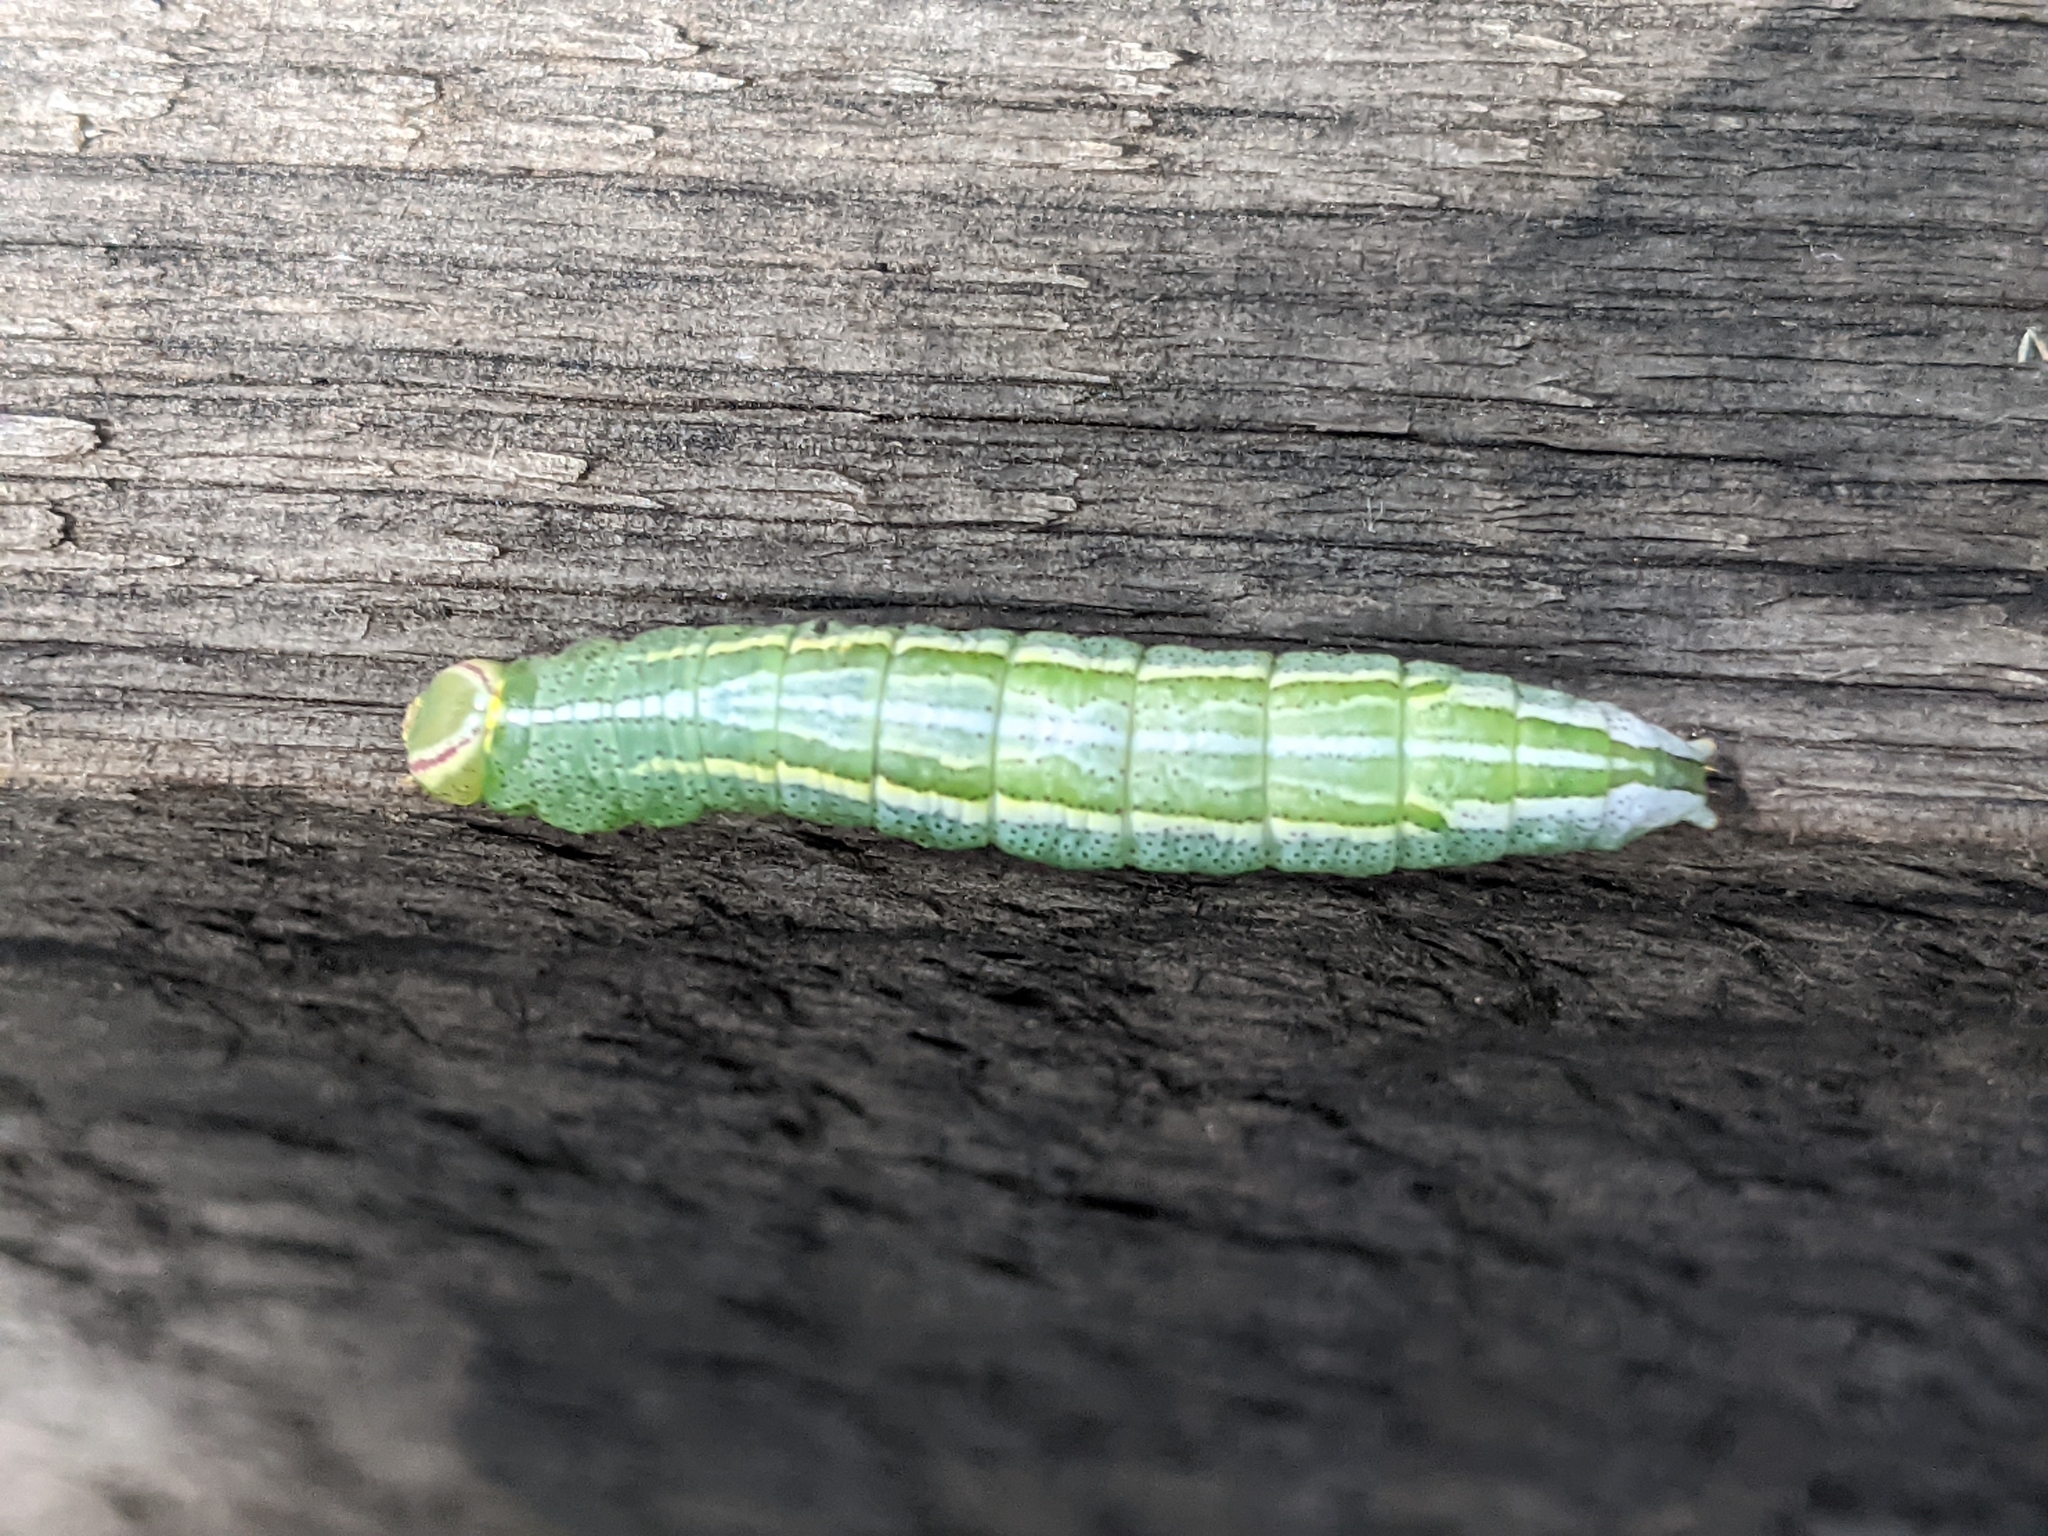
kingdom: Animalia
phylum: Arthropoda
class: Insecta
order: Lepidoptera
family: Notodontidae
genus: Disphragis
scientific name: Disphragis Cecrita guttivitta
